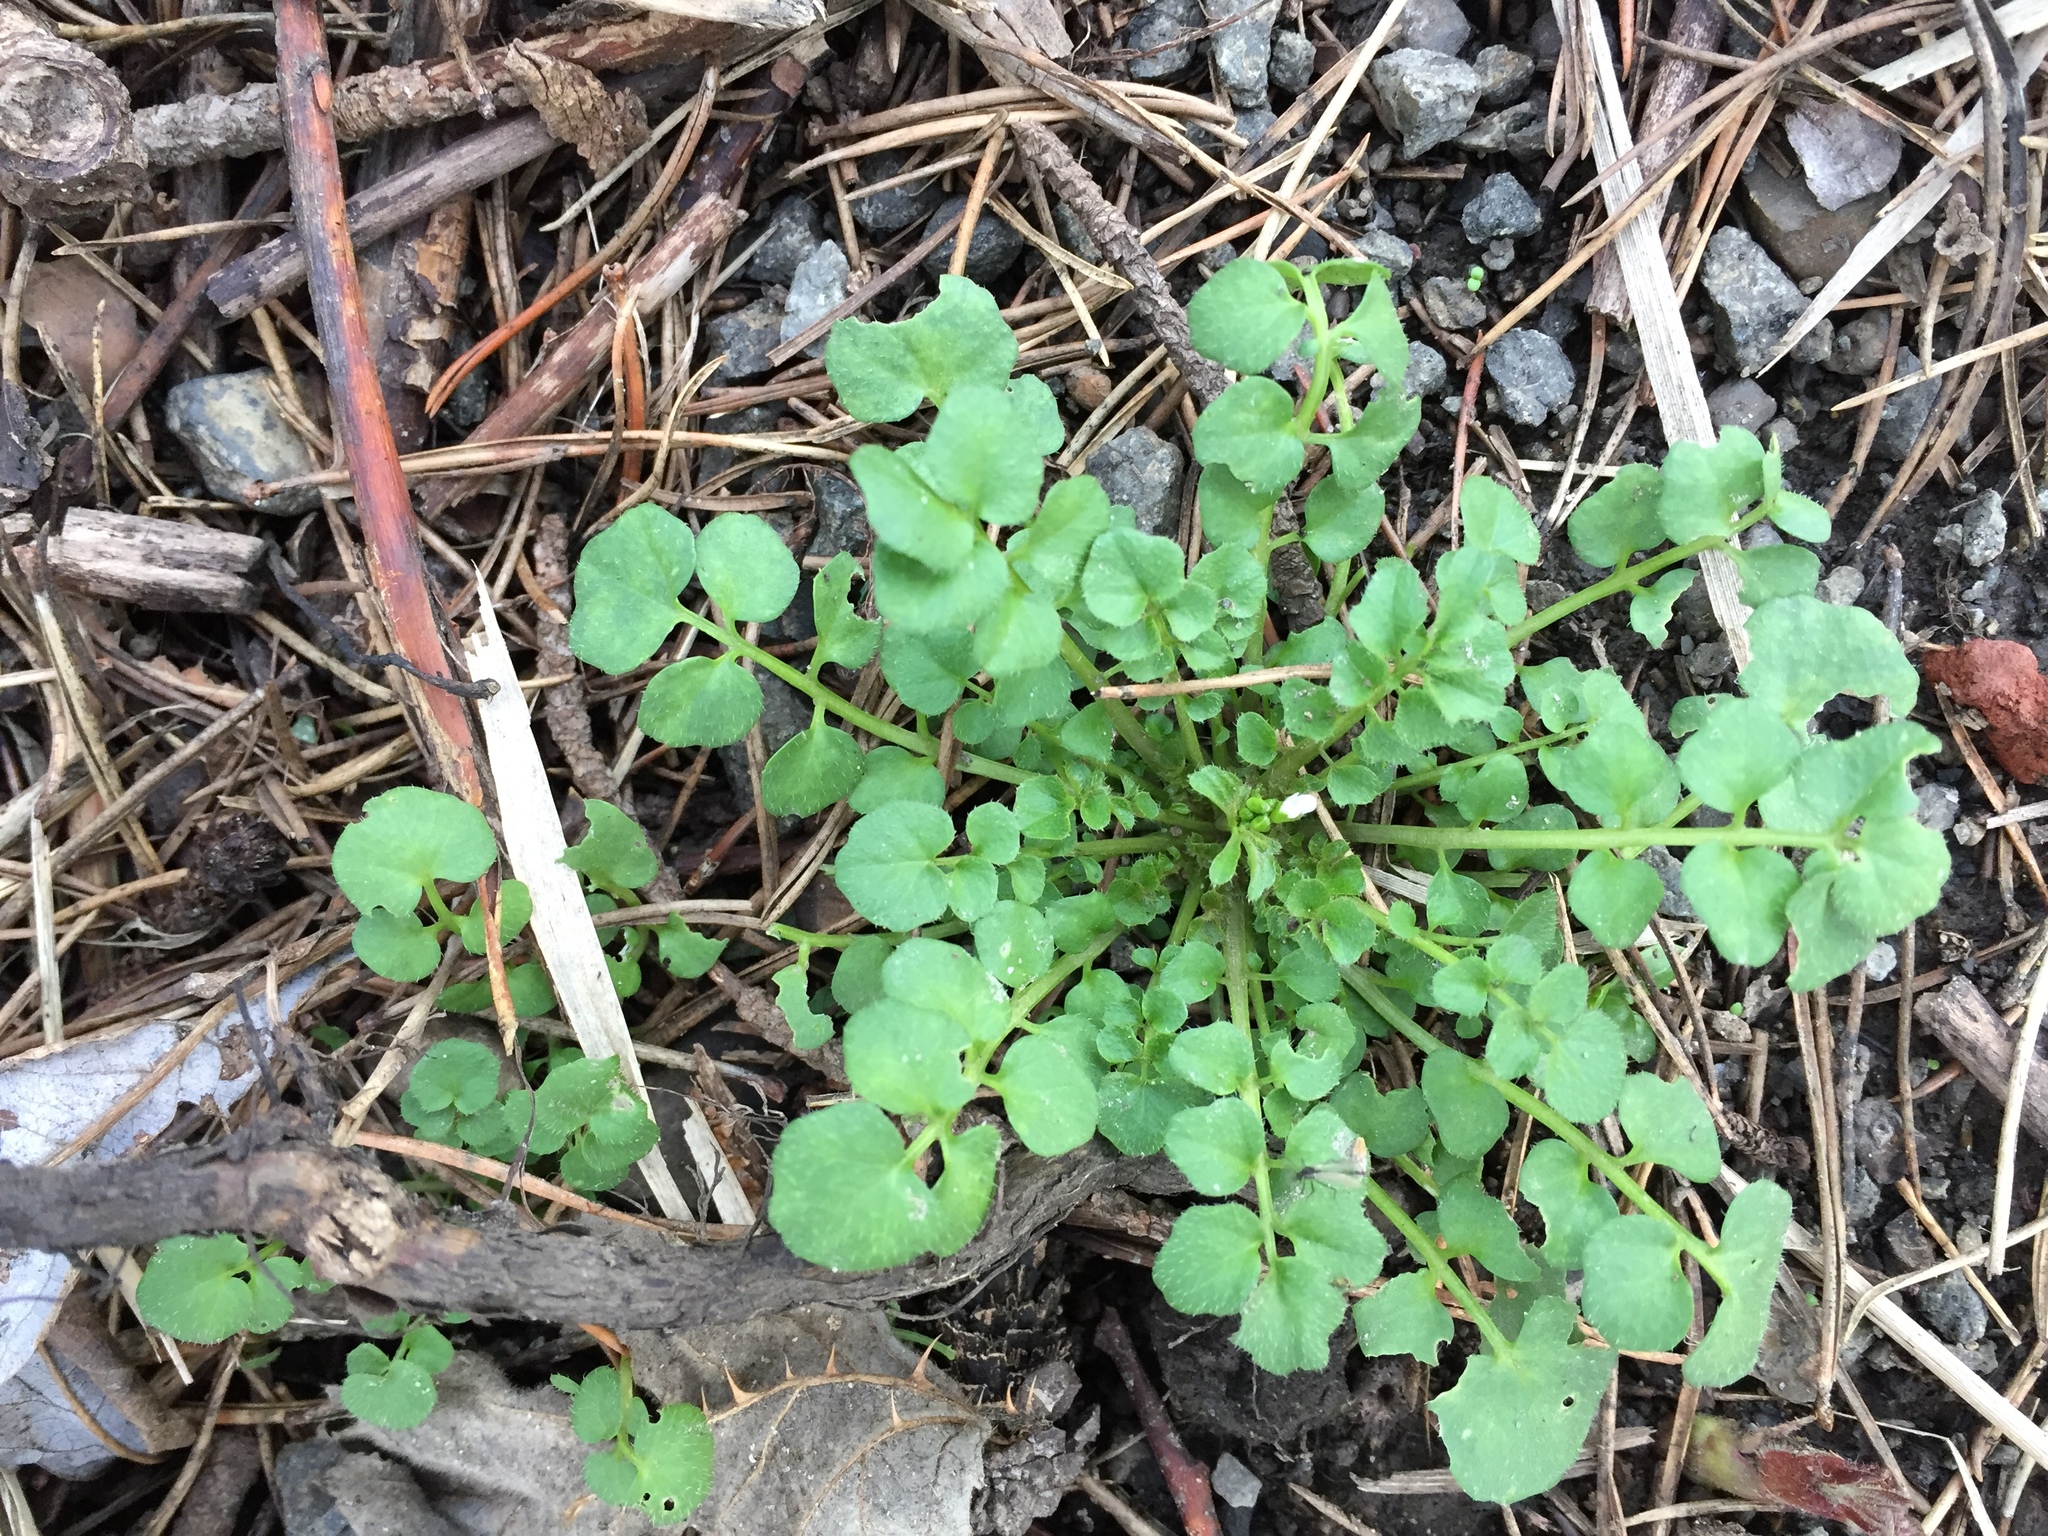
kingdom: Plantae
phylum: Tracheophyta
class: Magnoliopsida
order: Brassicales
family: Brassicaceae
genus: Cardamine
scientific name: Cardamine hirsuta
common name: Hairy bittercress
